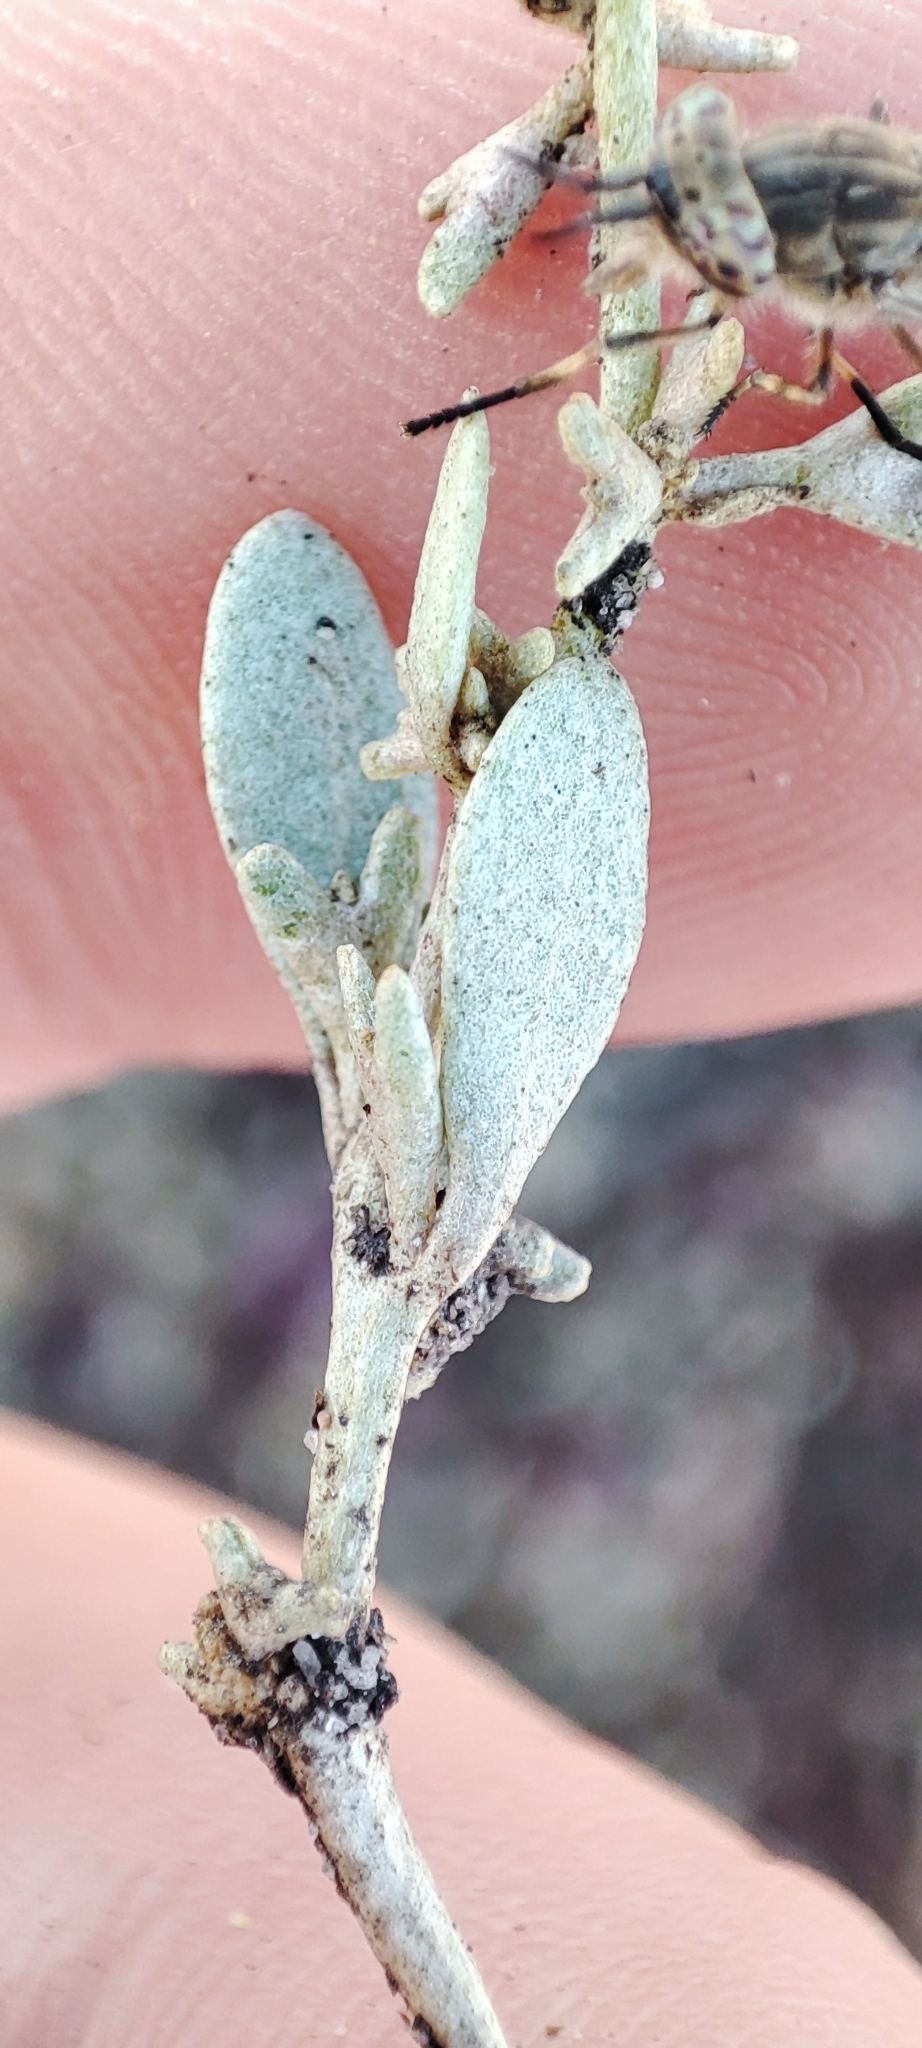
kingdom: Plantae
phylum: Tracheophyta
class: Magnoliopsida
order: Caryophyllales
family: Amaranthaceae
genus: Halimione
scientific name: Halimione pedunculata
